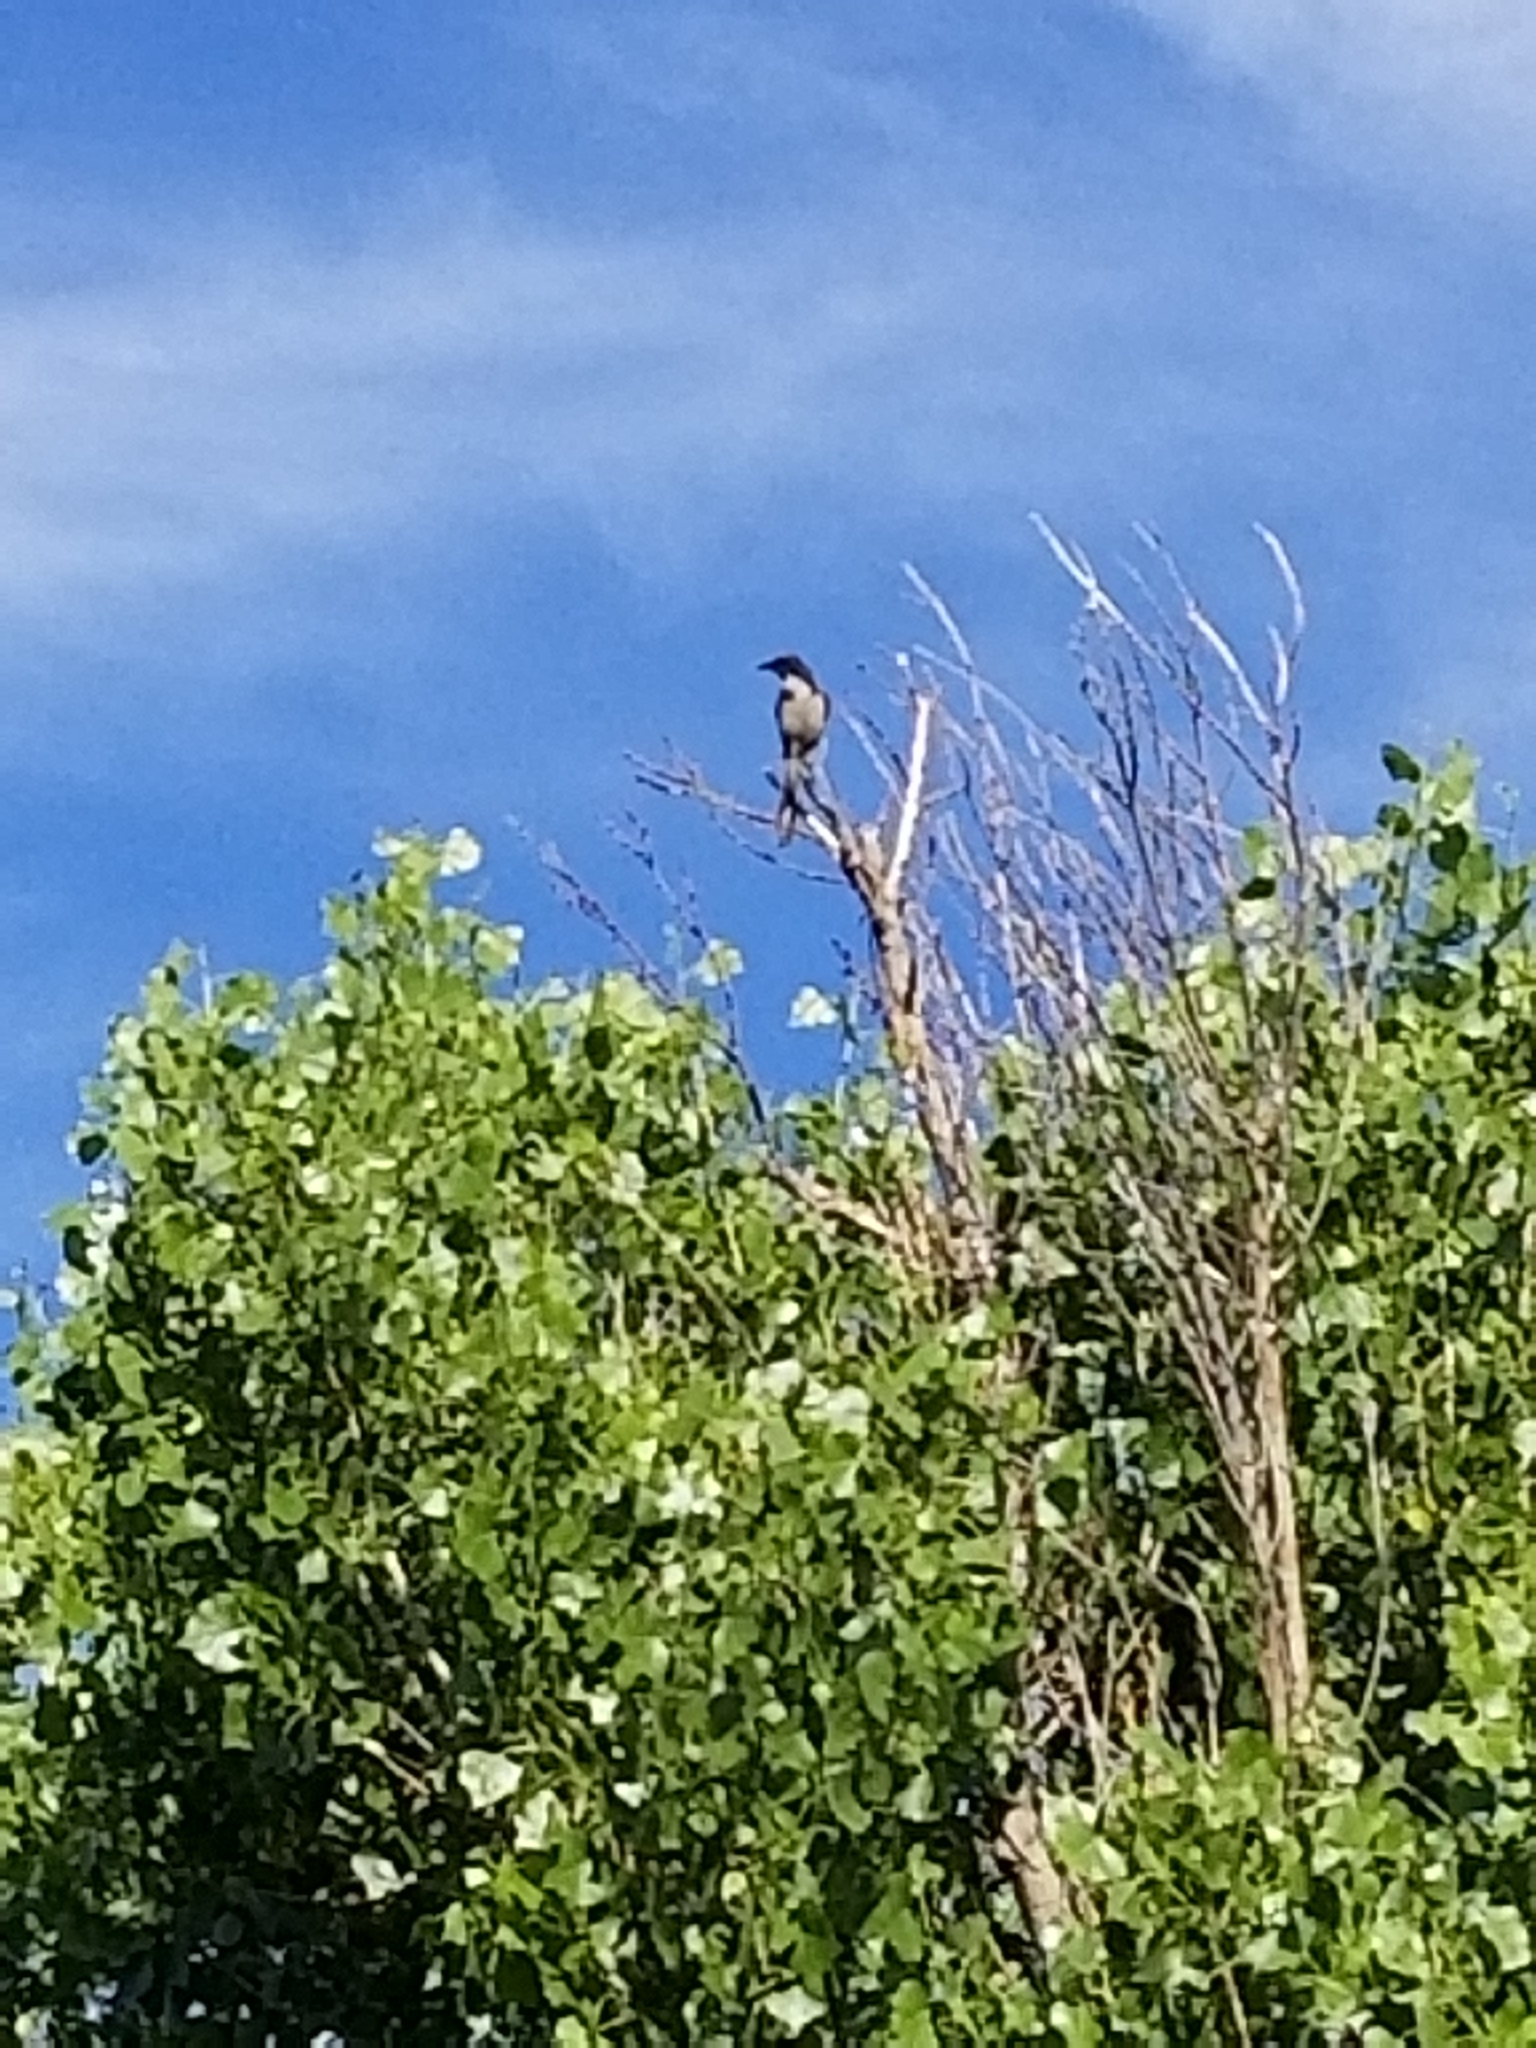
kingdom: Animalia
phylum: Chordata
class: Aves
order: Passeriformes
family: Corvidae
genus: Aphelocoma
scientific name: Aphelocoma californica
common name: California scrub-jay
